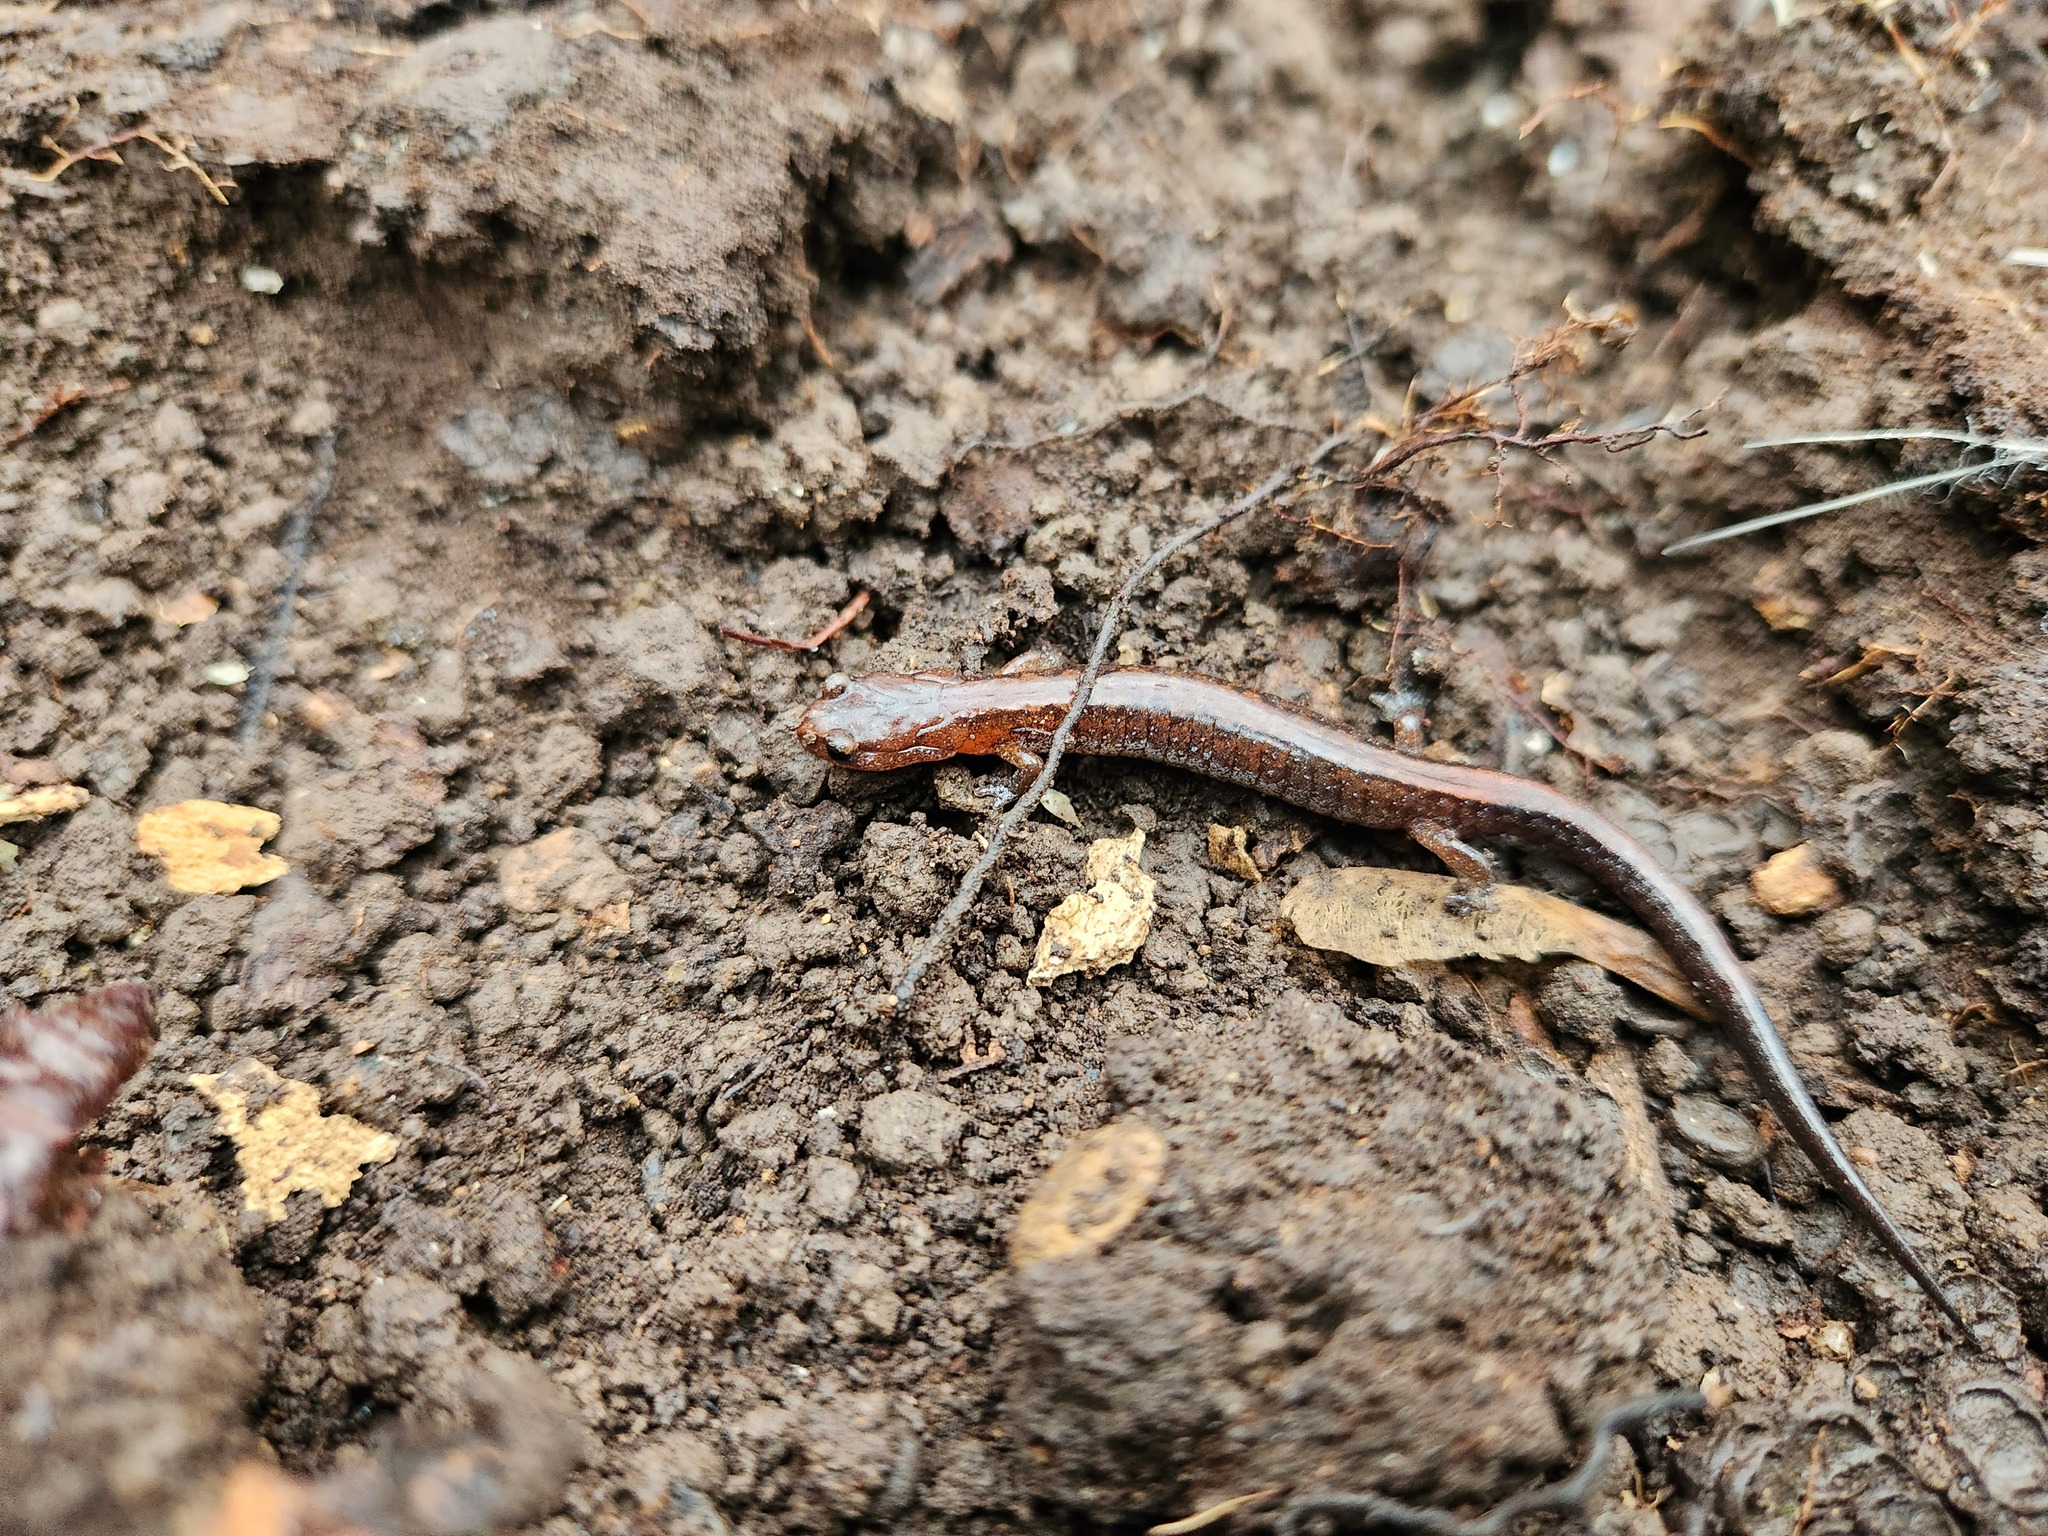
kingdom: Animalia
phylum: Chordata
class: Amphibia
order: Caudata
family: Plethodontidae
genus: Plethodon
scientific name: Plethodon dorsalis
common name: Northern zigzag salamander
